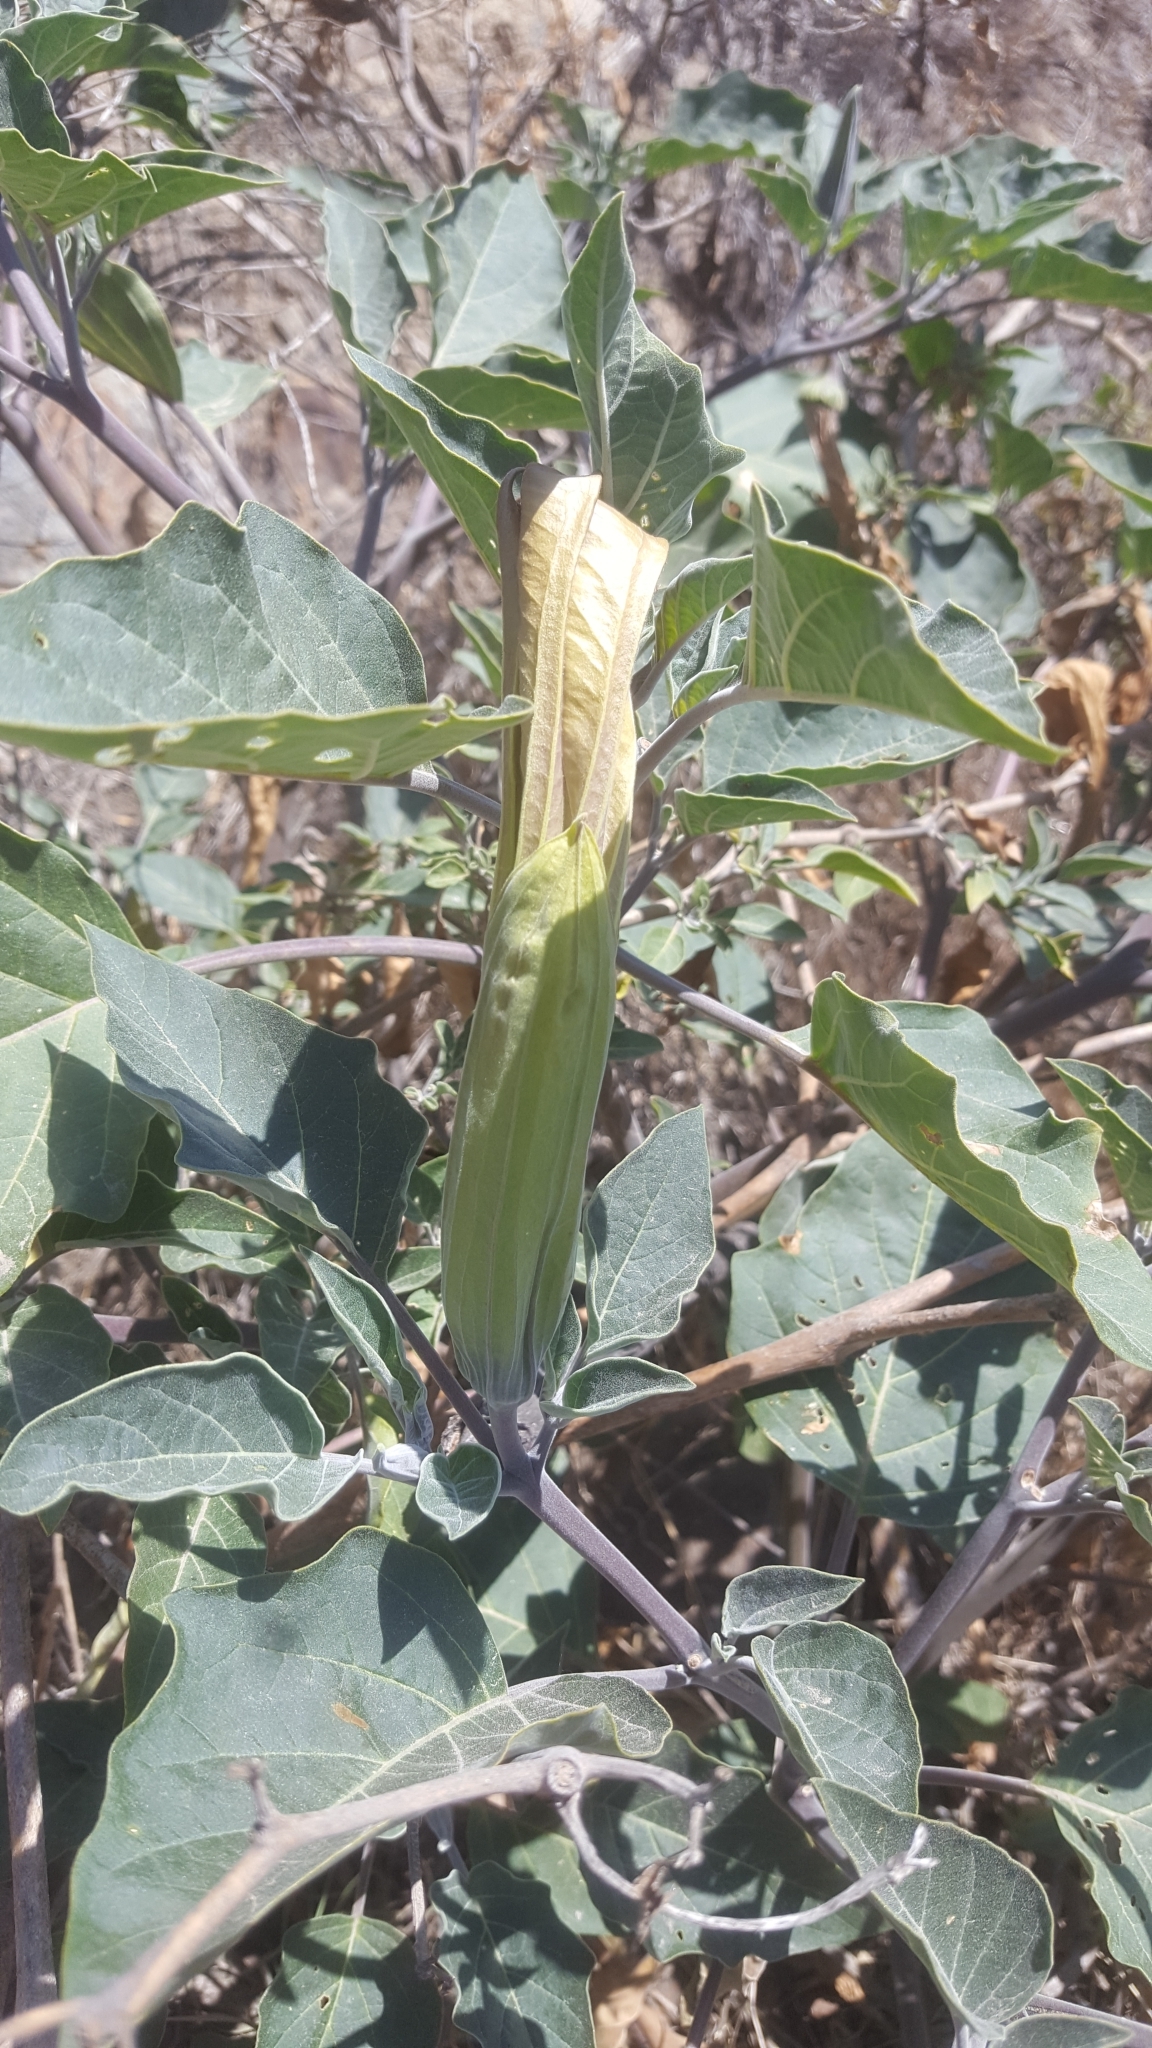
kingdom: Plantae
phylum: Tracheophyta
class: Magnoliopsida
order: Solanales
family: Solanaceae
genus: Datura
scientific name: Datura wrightii
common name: Sacred thorn-apple
